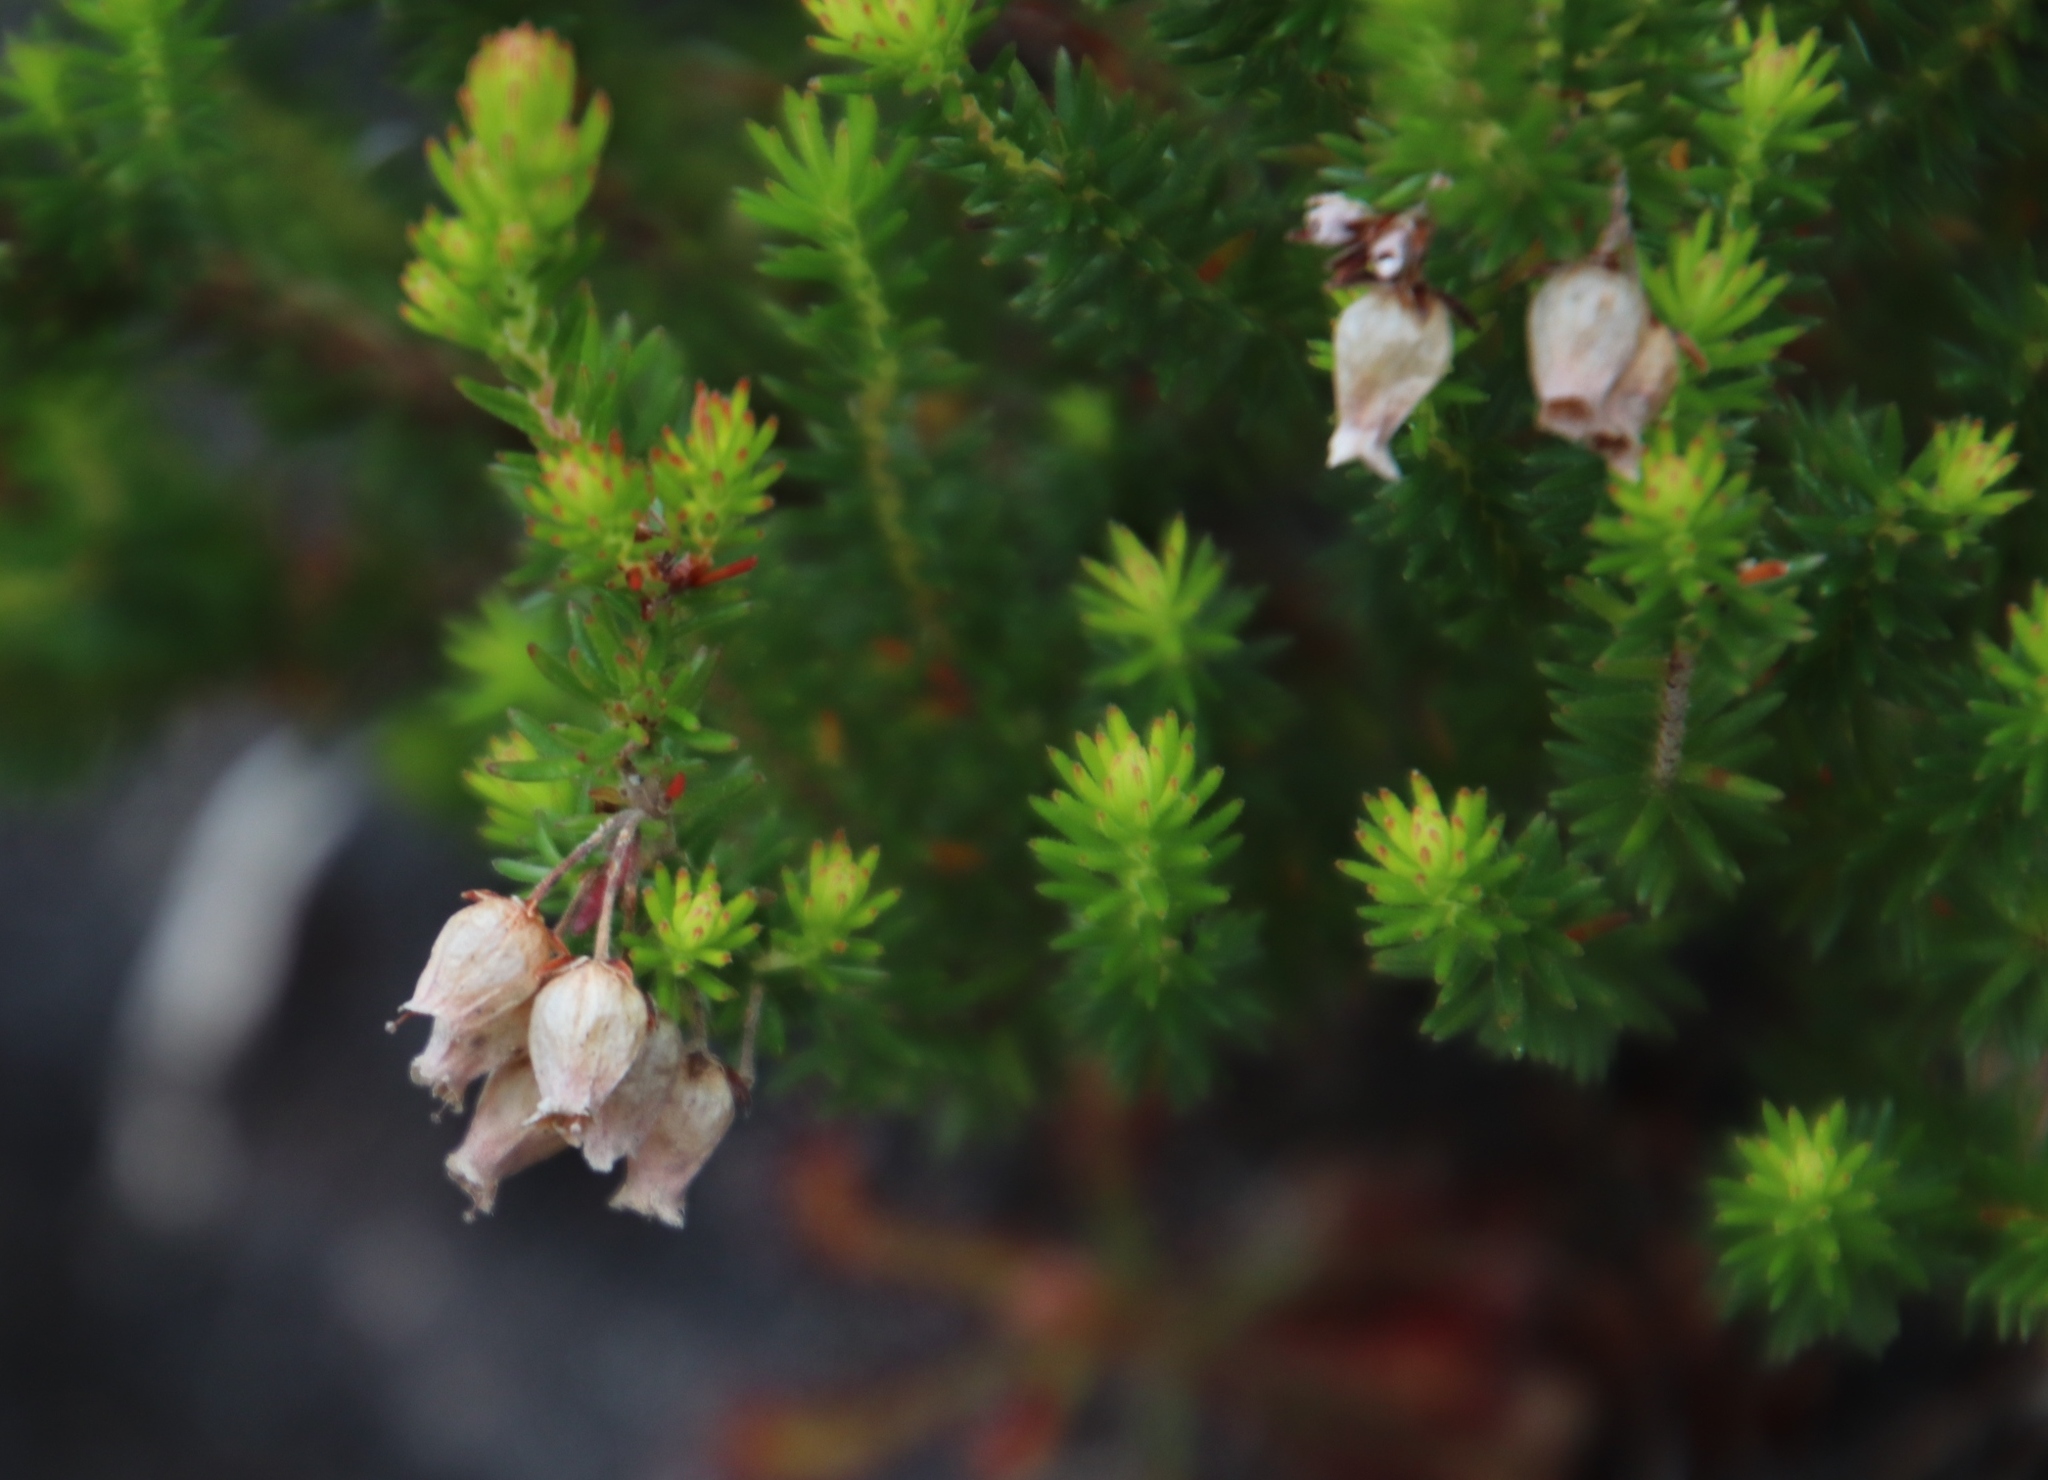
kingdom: Plantae
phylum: Tracheophyta
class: Magnoliopsida
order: Ericales
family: Ericaceae
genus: Erica
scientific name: Erica tenella
